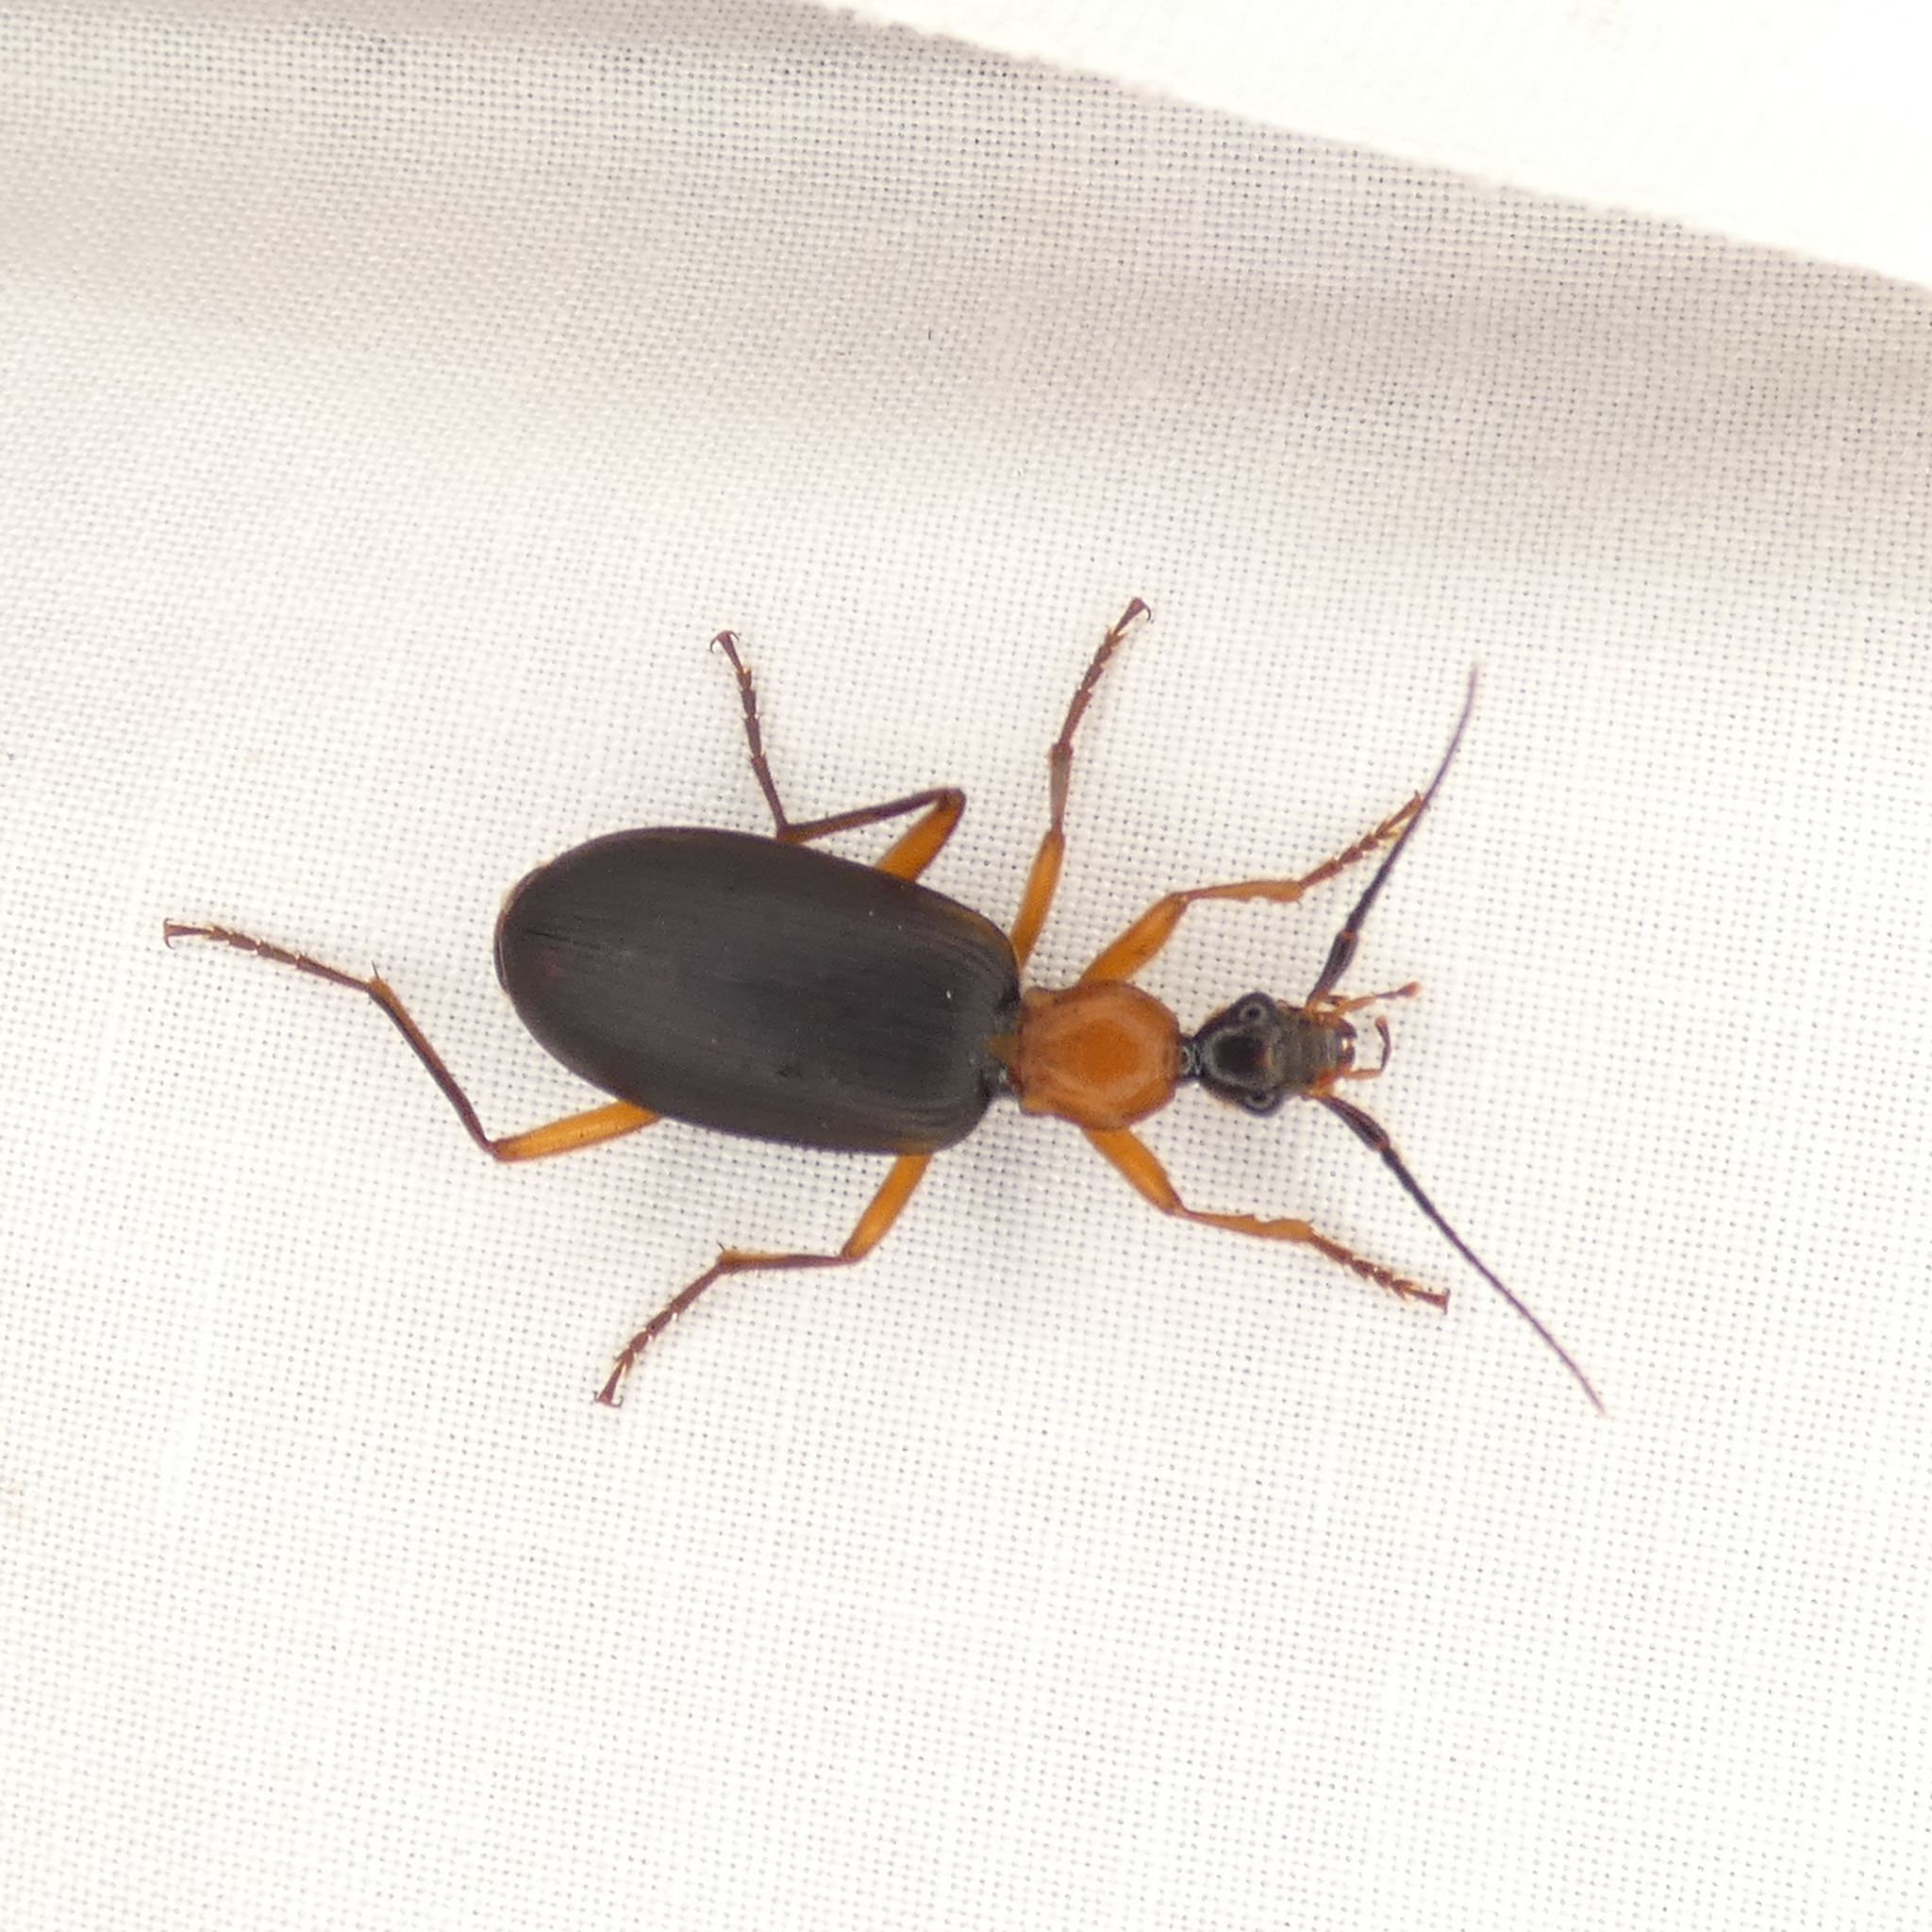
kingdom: Animalia
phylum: Arthropoda
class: Insecta
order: Coleoptera
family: Carabidae
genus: Galerita
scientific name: Galerita bicolor
